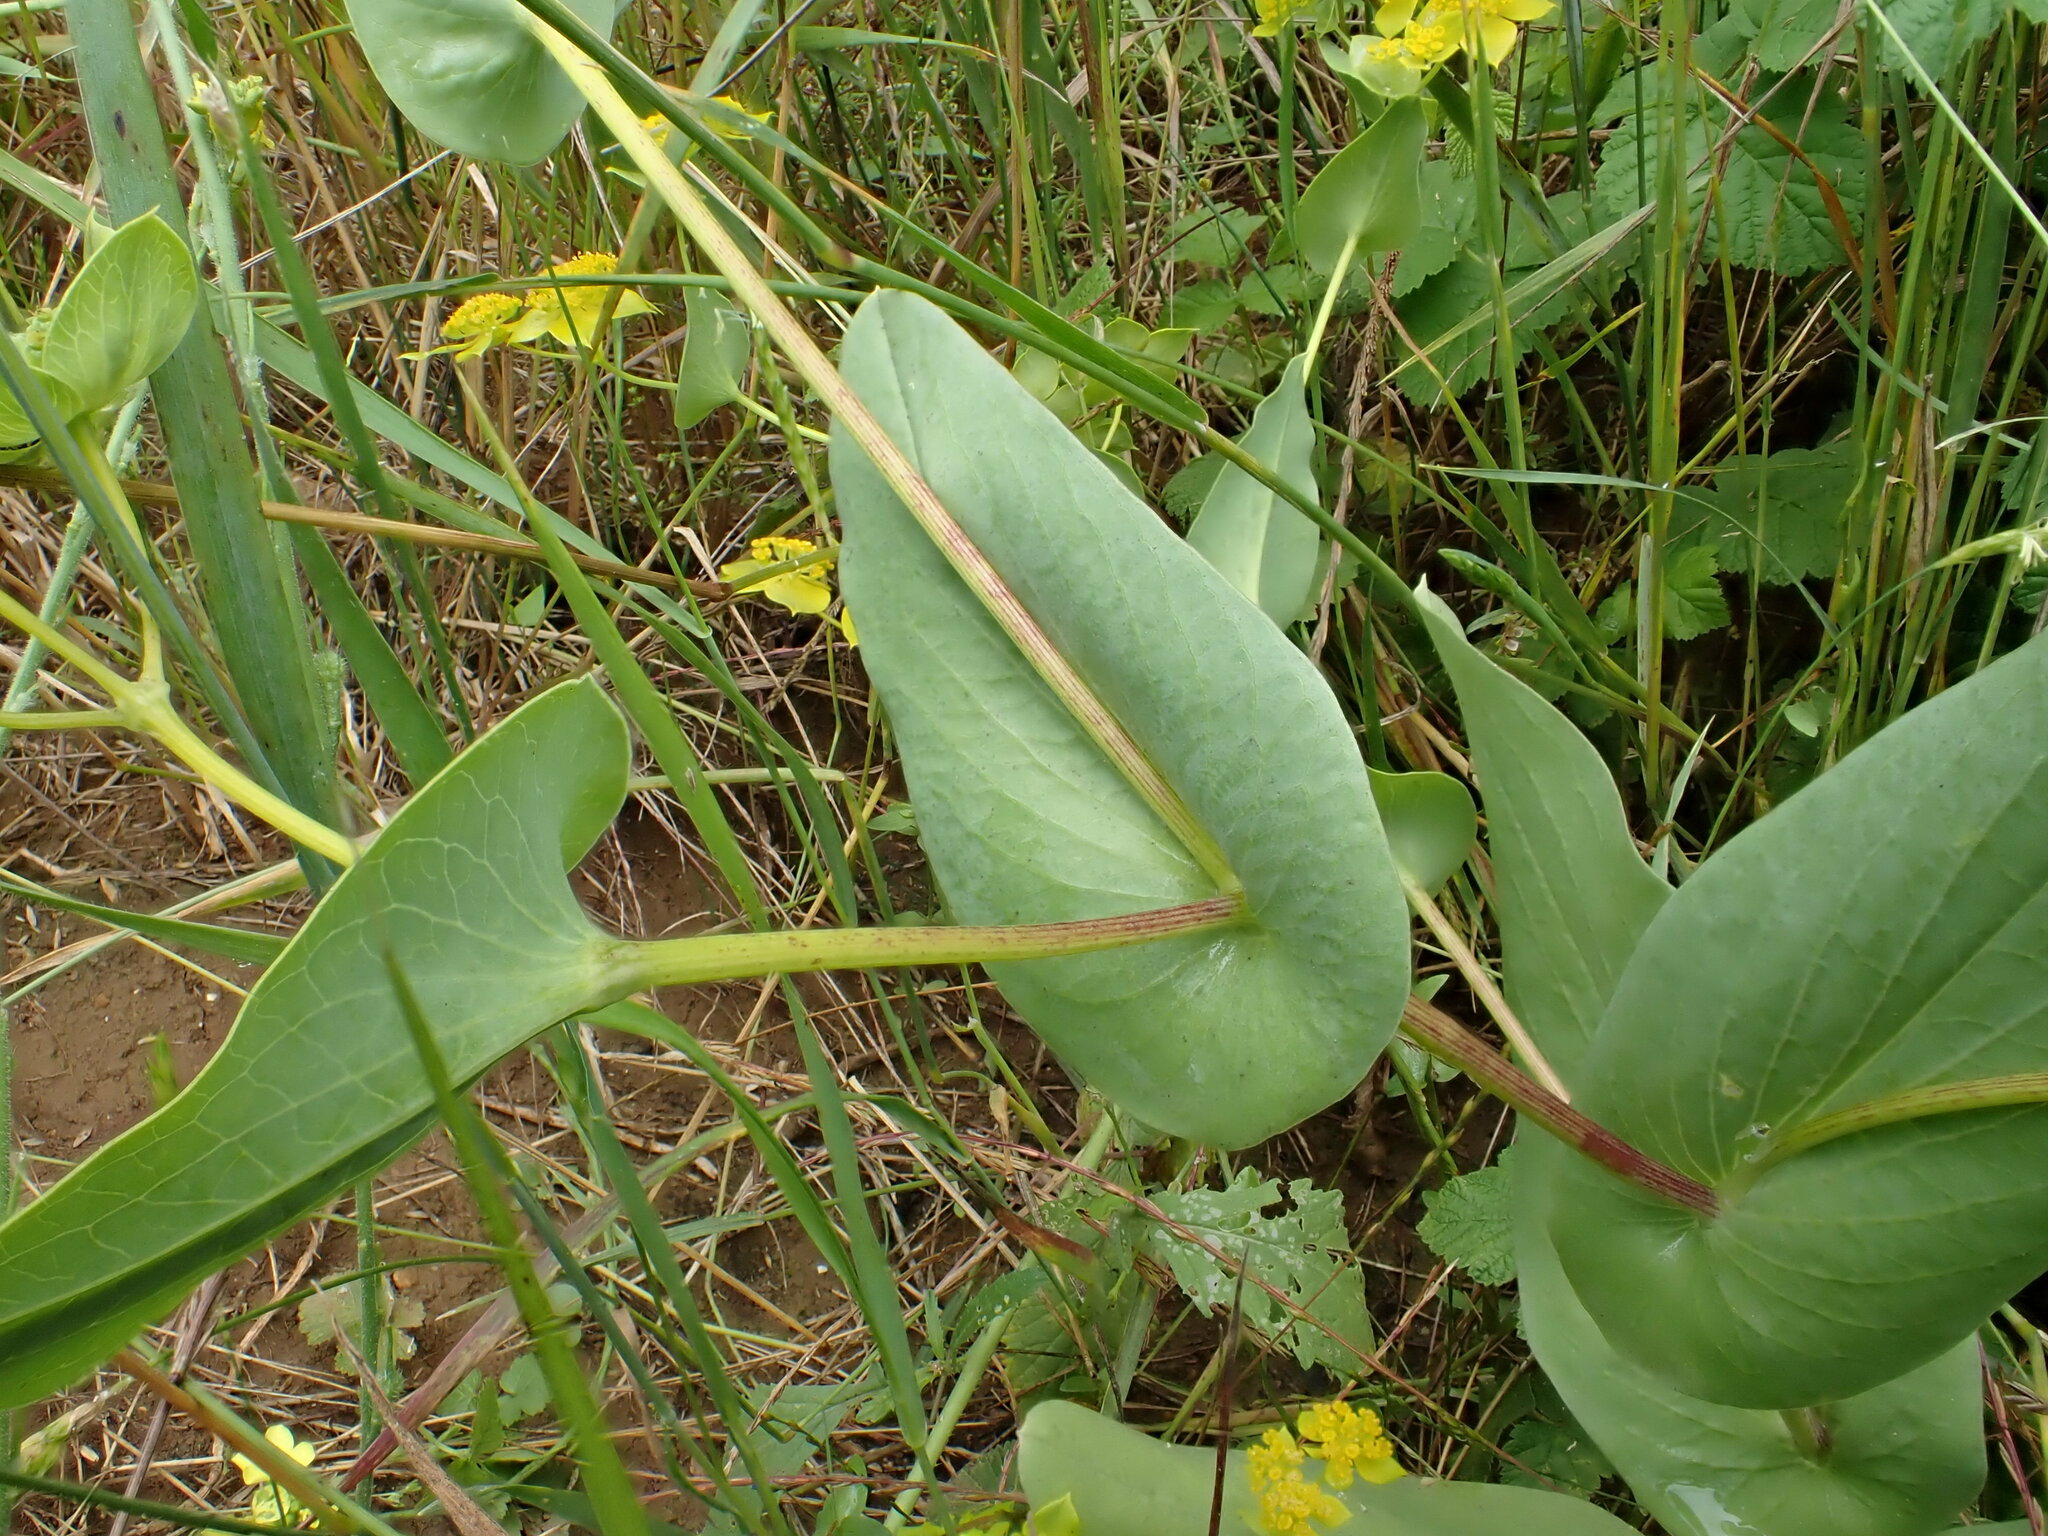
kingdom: Plantae
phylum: Tracheophyta
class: Magnoliopsida
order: Apiales
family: Apiaceae
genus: Bupleurum
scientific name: Bupleurum rotundifolium
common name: Thorow-wax
